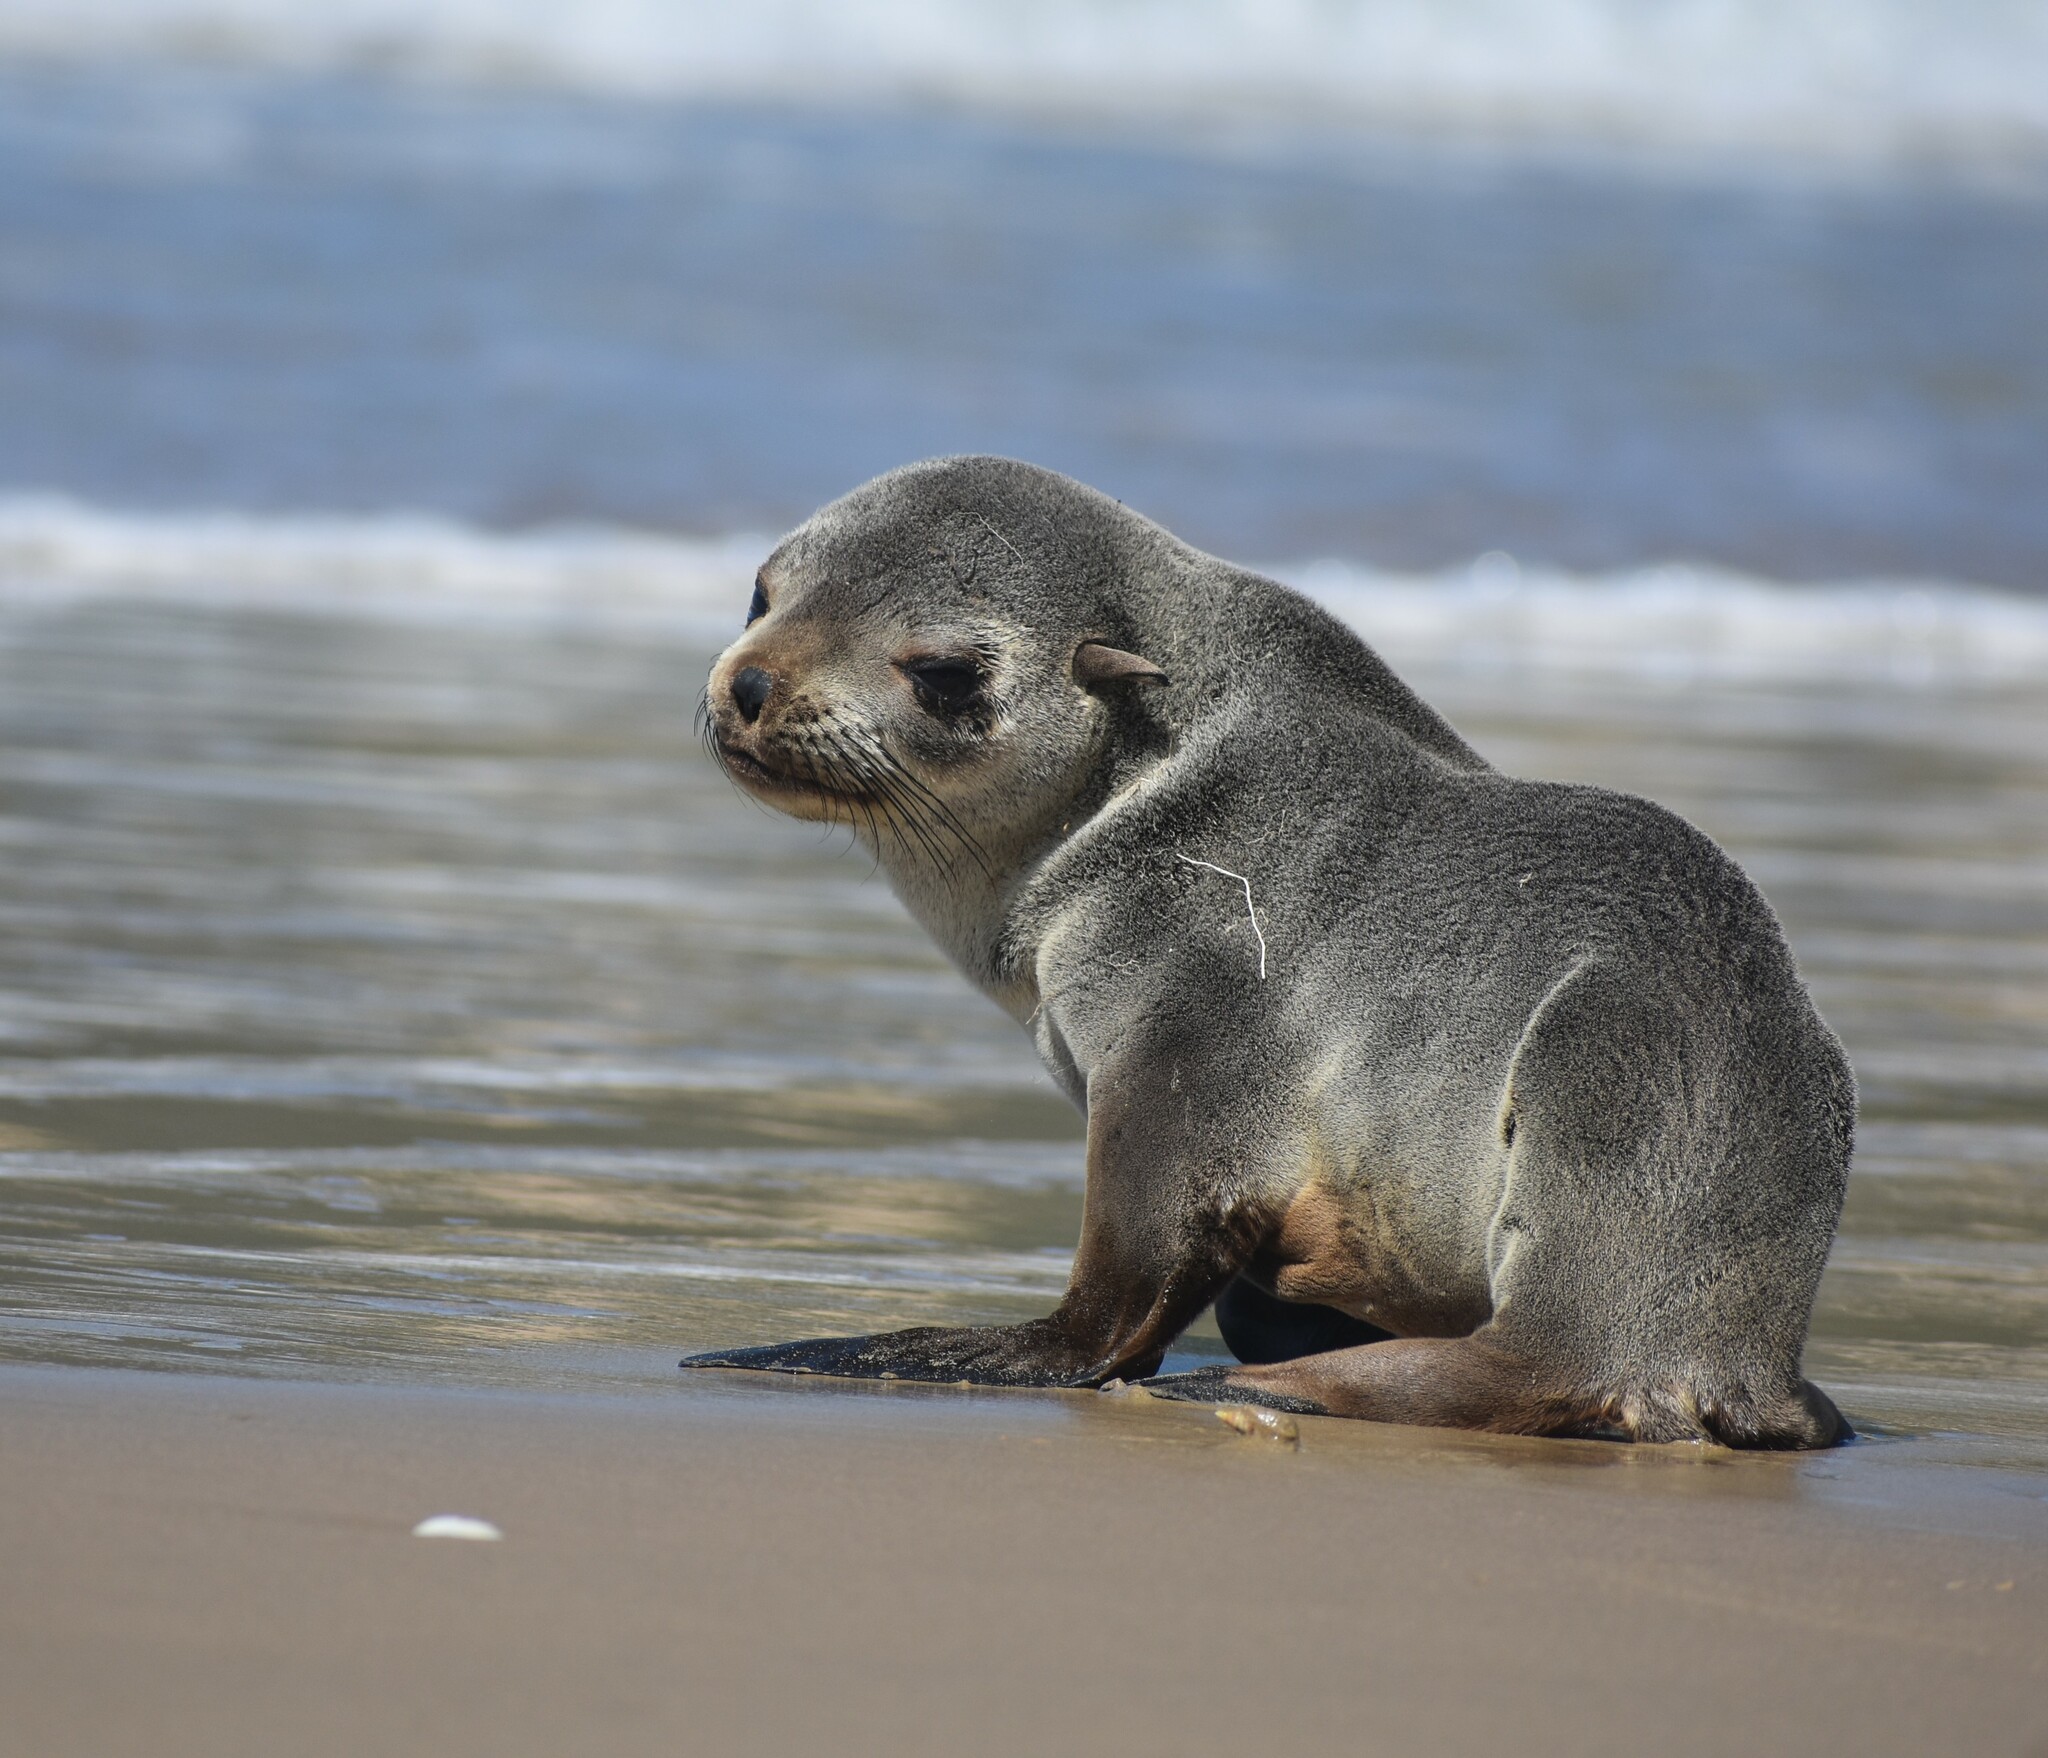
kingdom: Animalia
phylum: Chordata
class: Mammalia
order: Carnivora
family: Otariidae
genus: Arctocephalus
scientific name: Arctocephalus pusillus
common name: Brown fur seal
